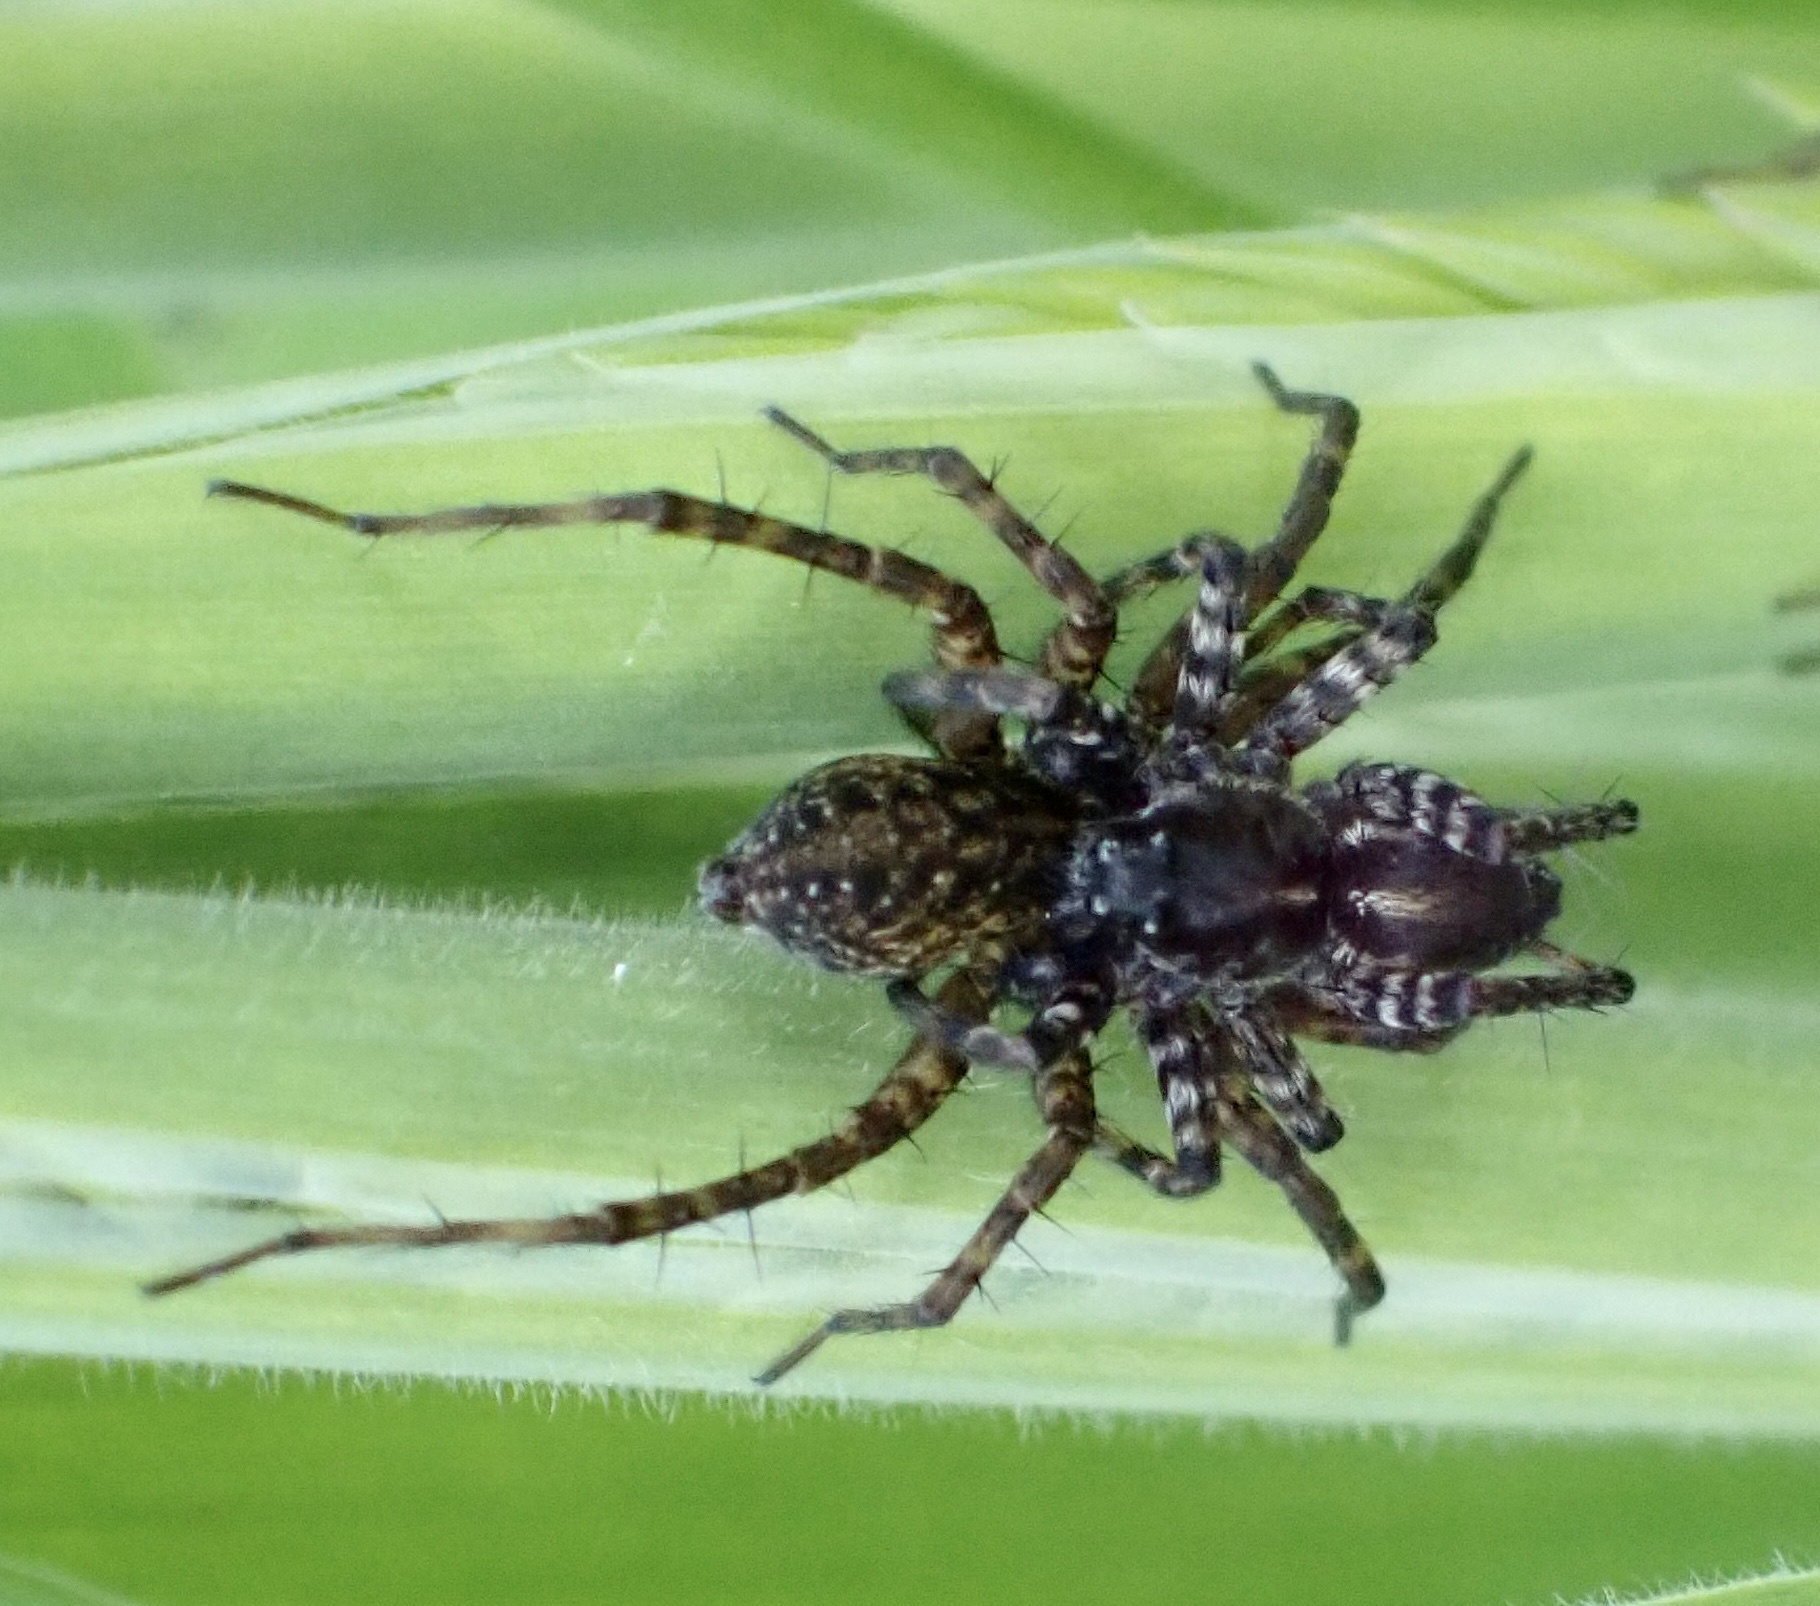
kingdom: Animalia
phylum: Arthropoda
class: Arachnida
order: Araneae
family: Lycosidae
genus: Pardosa
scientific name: Pardosa prativaga
